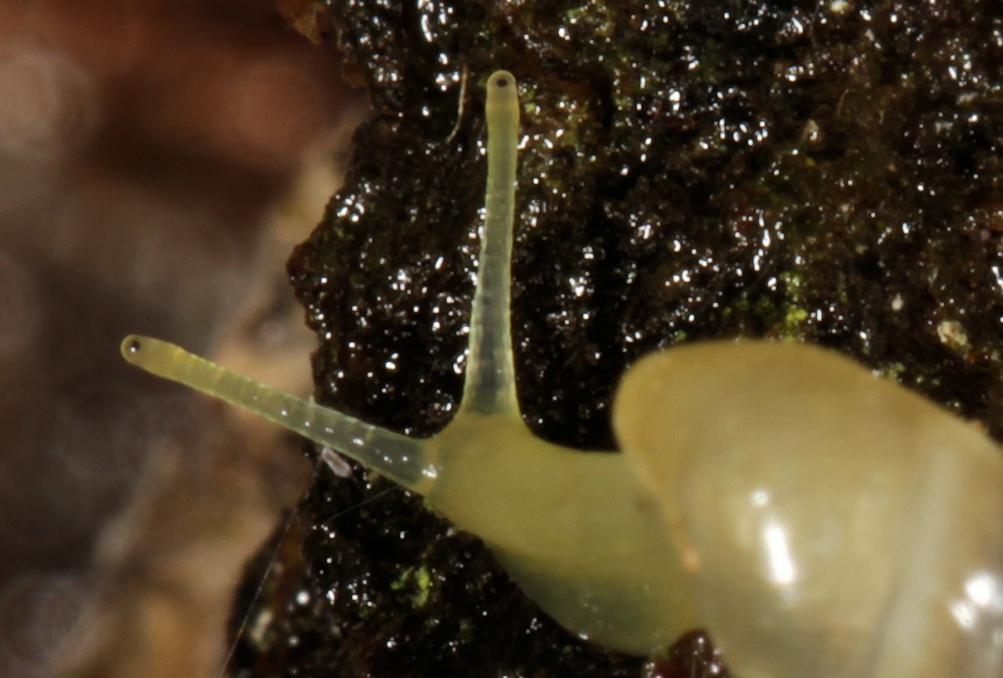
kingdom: Animalia
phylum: Mollusca
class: Gastropoda
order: Stylommatophora
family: Achatinidae
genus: Opeas
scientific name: Opeas crystallinum
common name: Crystalline awl snail
